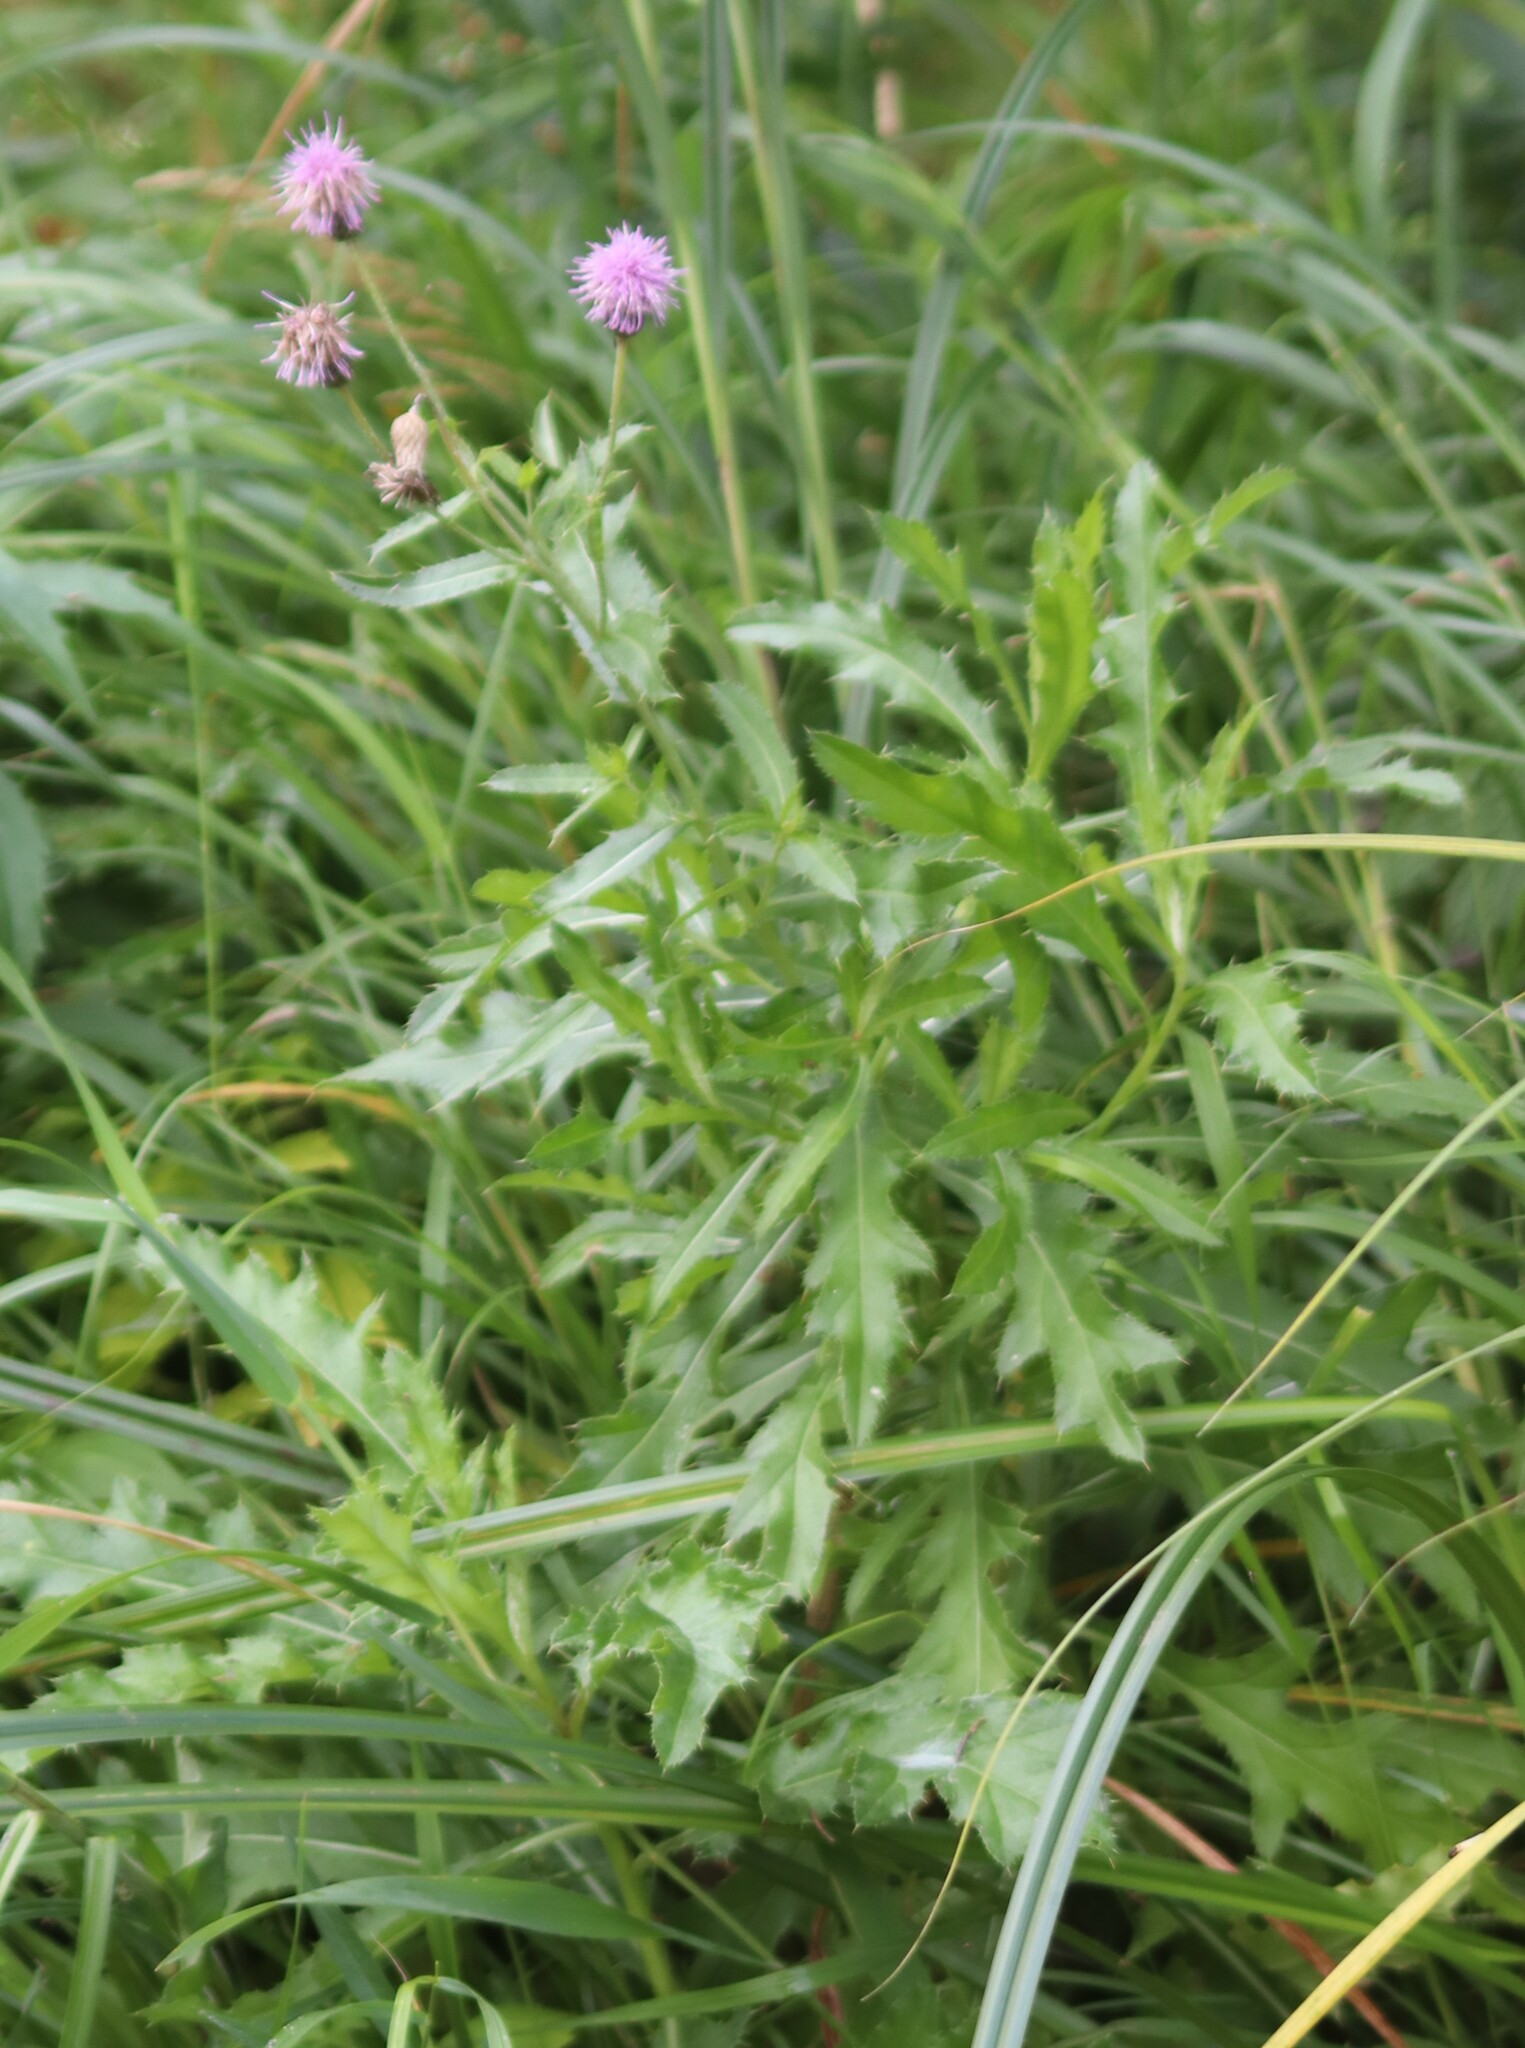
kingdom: Plantae
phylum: Tracheophyta
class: Magnoliopsida
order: Asterales
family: Asteraceae
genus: Cirsium
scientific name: Cirsium arvense
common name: Creeping thistle
